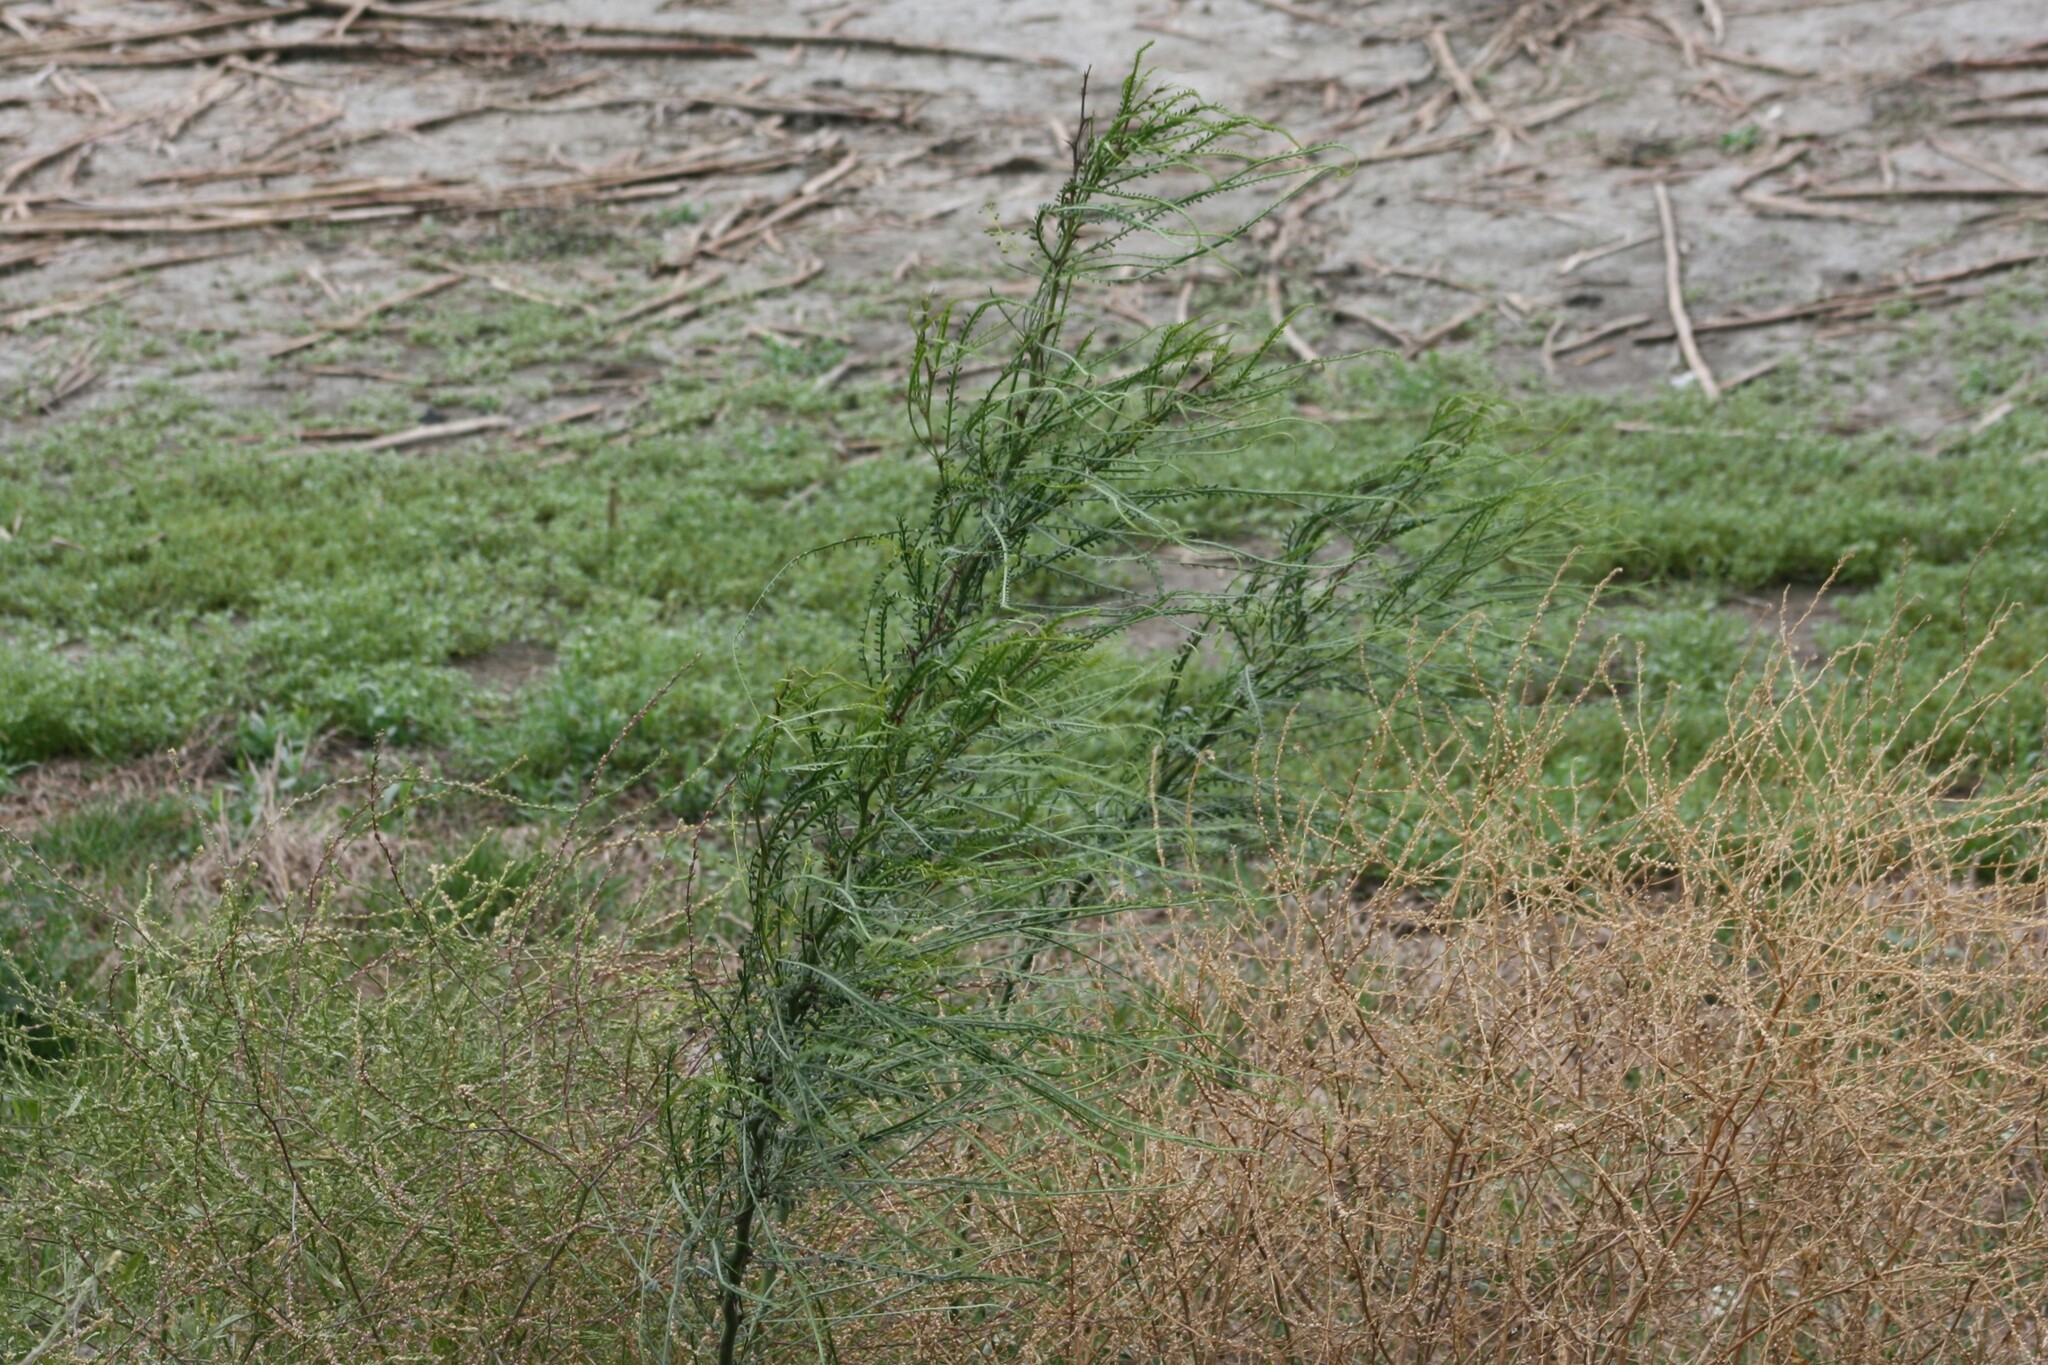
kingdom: Plantae
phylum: Tracheophyta
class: Magnoliopsida
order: Fabales
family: Fabaceae
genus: Parkinsonia
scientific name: Parkinsonia aculeata
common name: Jerusalem thorn
